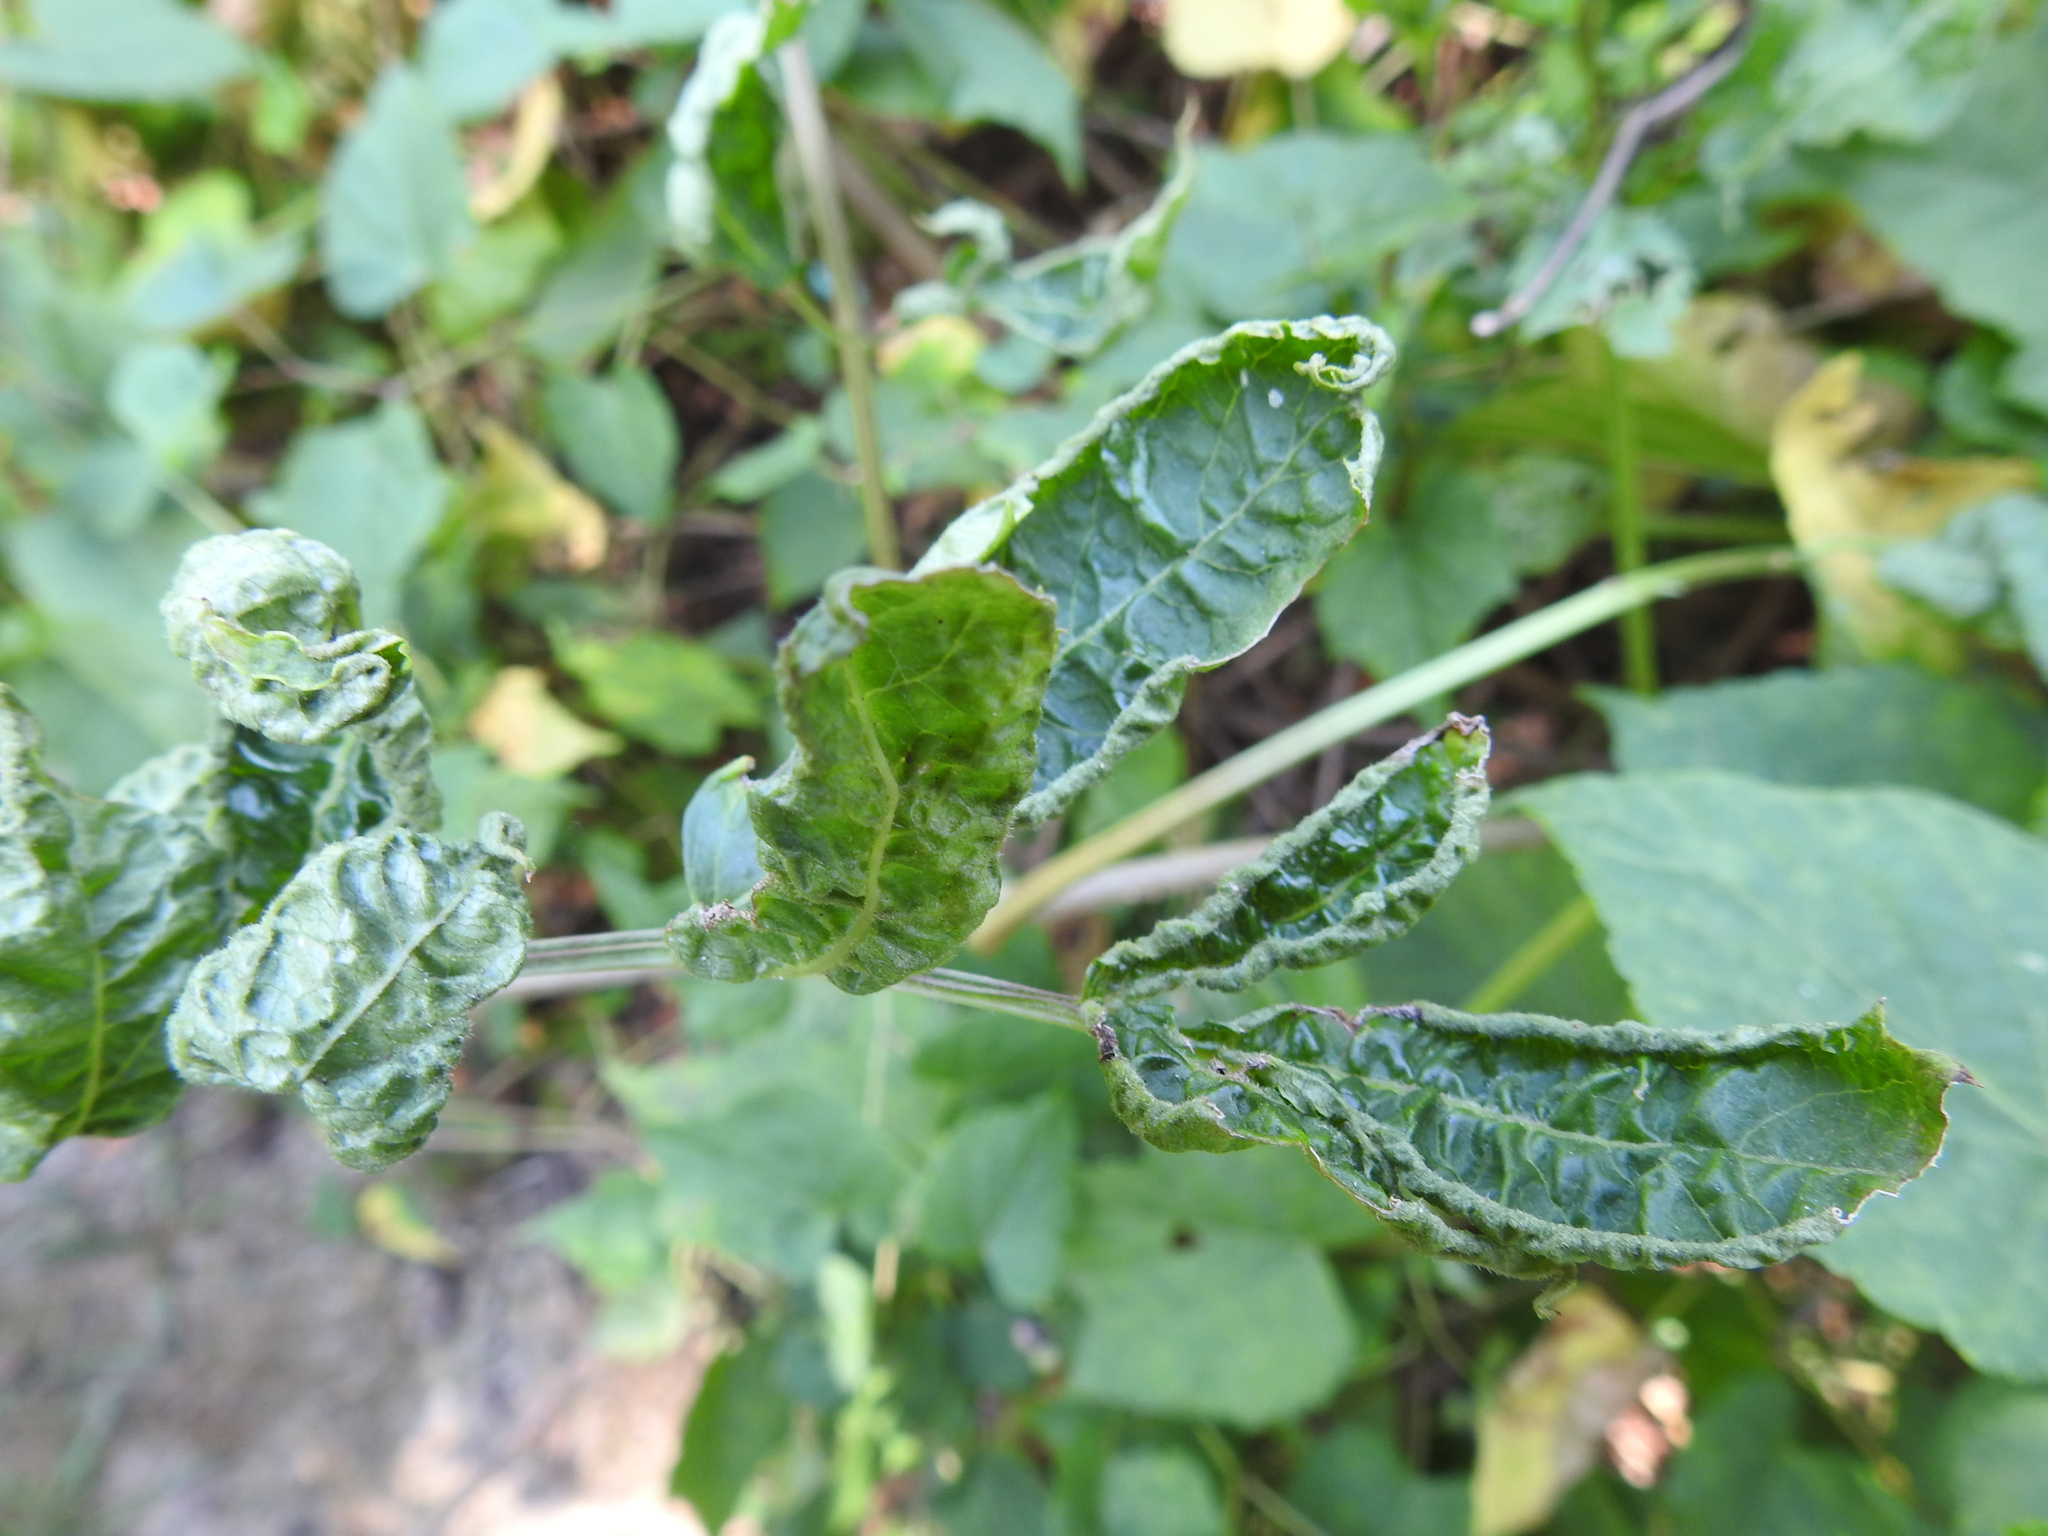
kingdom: Animalia
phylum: Arthropoda
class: Arachnida
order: Trombidiformes
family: Eriophyidae
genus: Phyllocoptes
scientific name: Phyllocoptes
